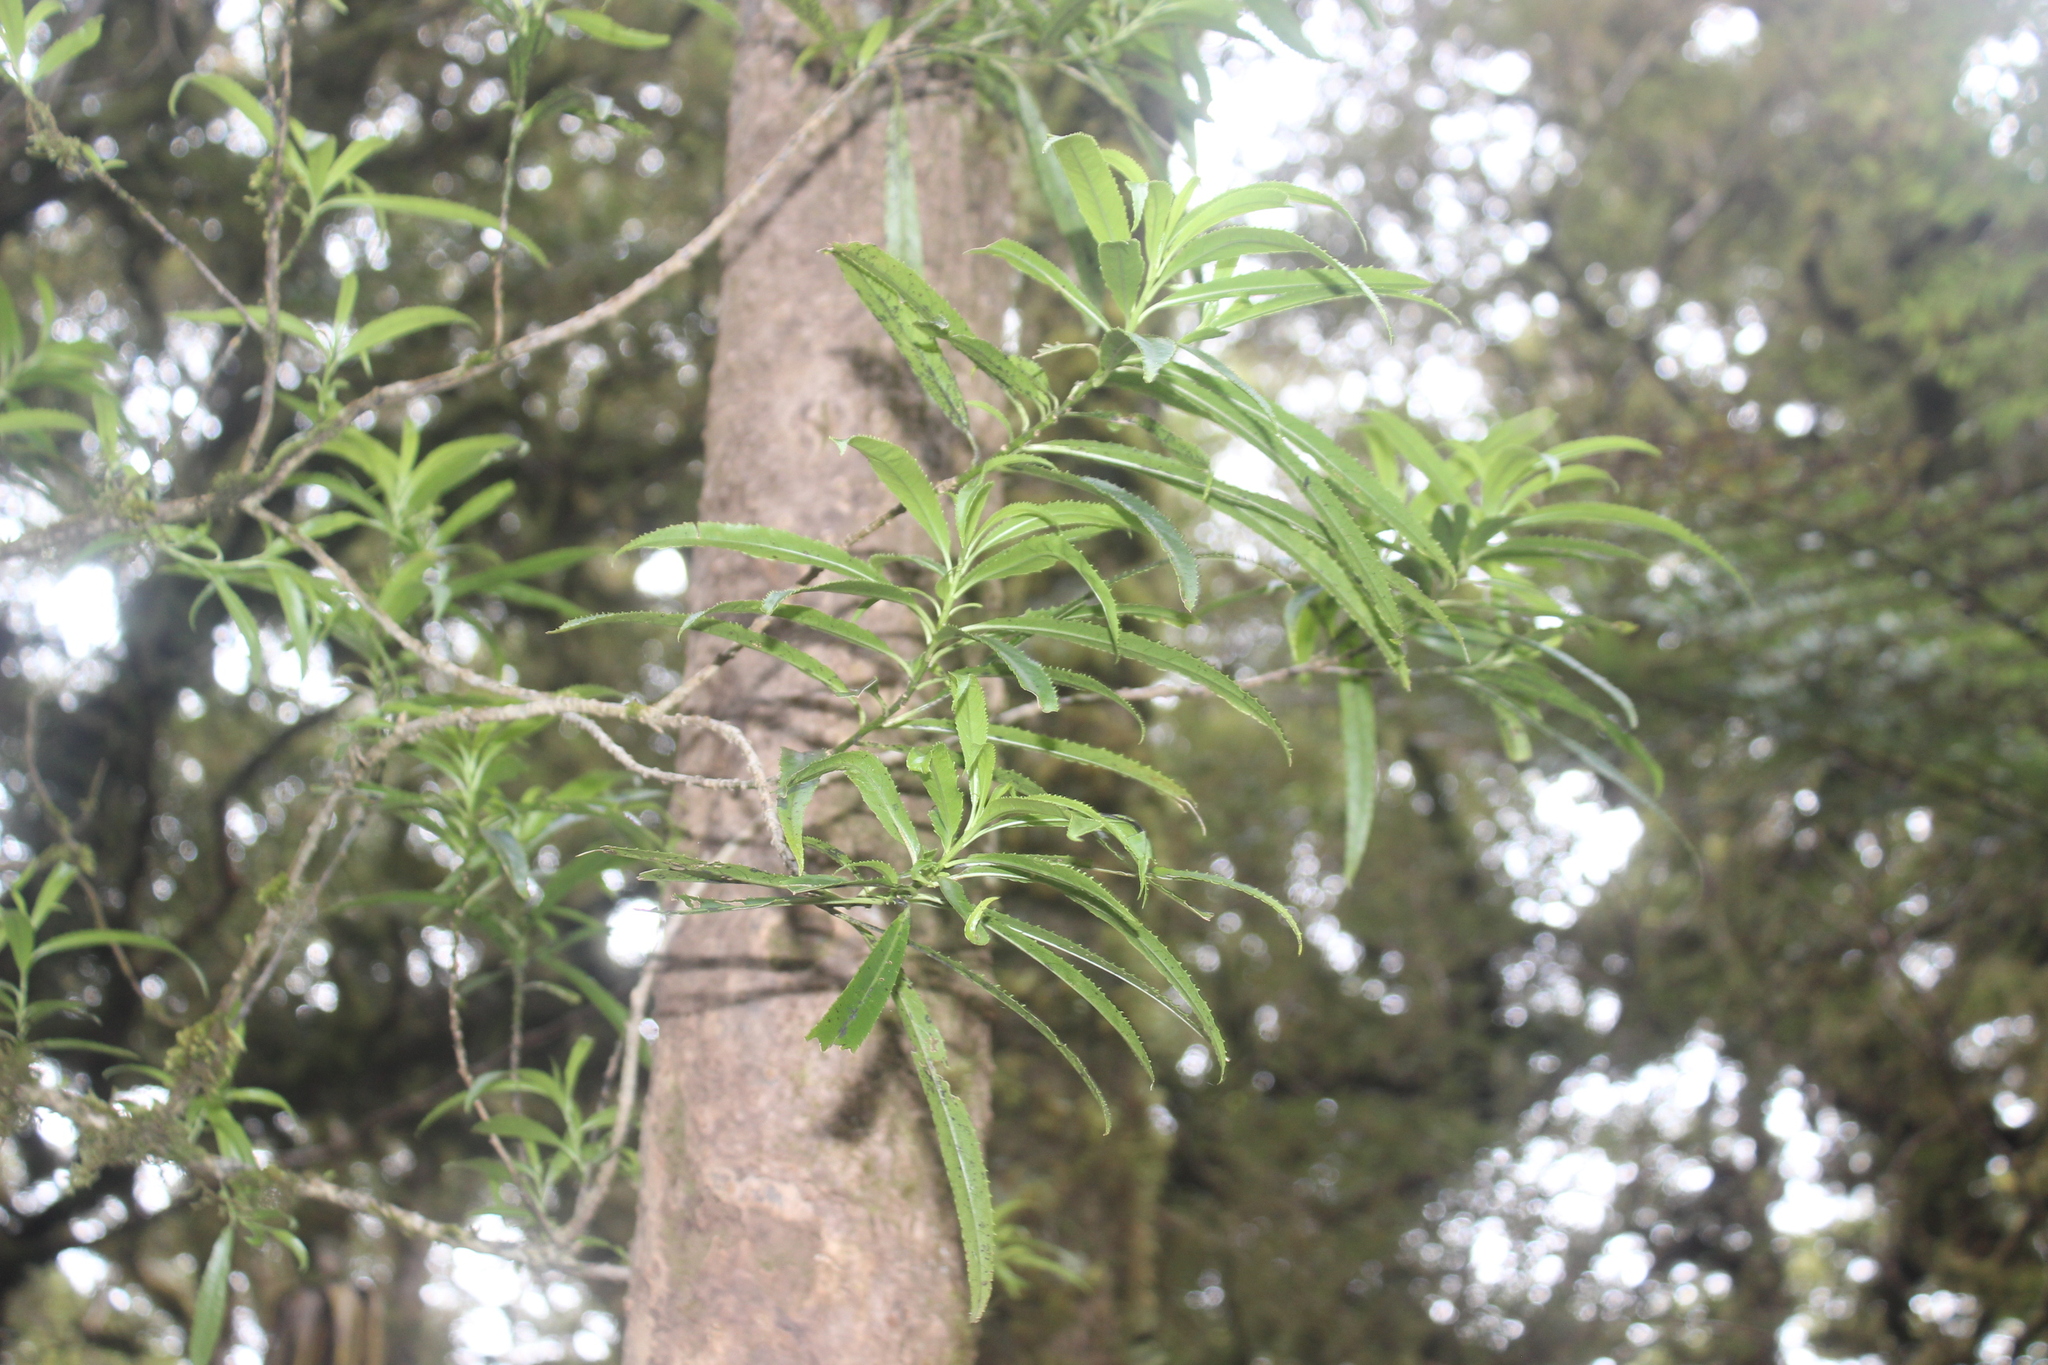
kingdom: Plantae
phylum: Tracheophyta
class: Magnoliopsida
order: Malpighiales
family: Violaceae
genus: Melicytus
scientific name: Melicytus lanceolatus
